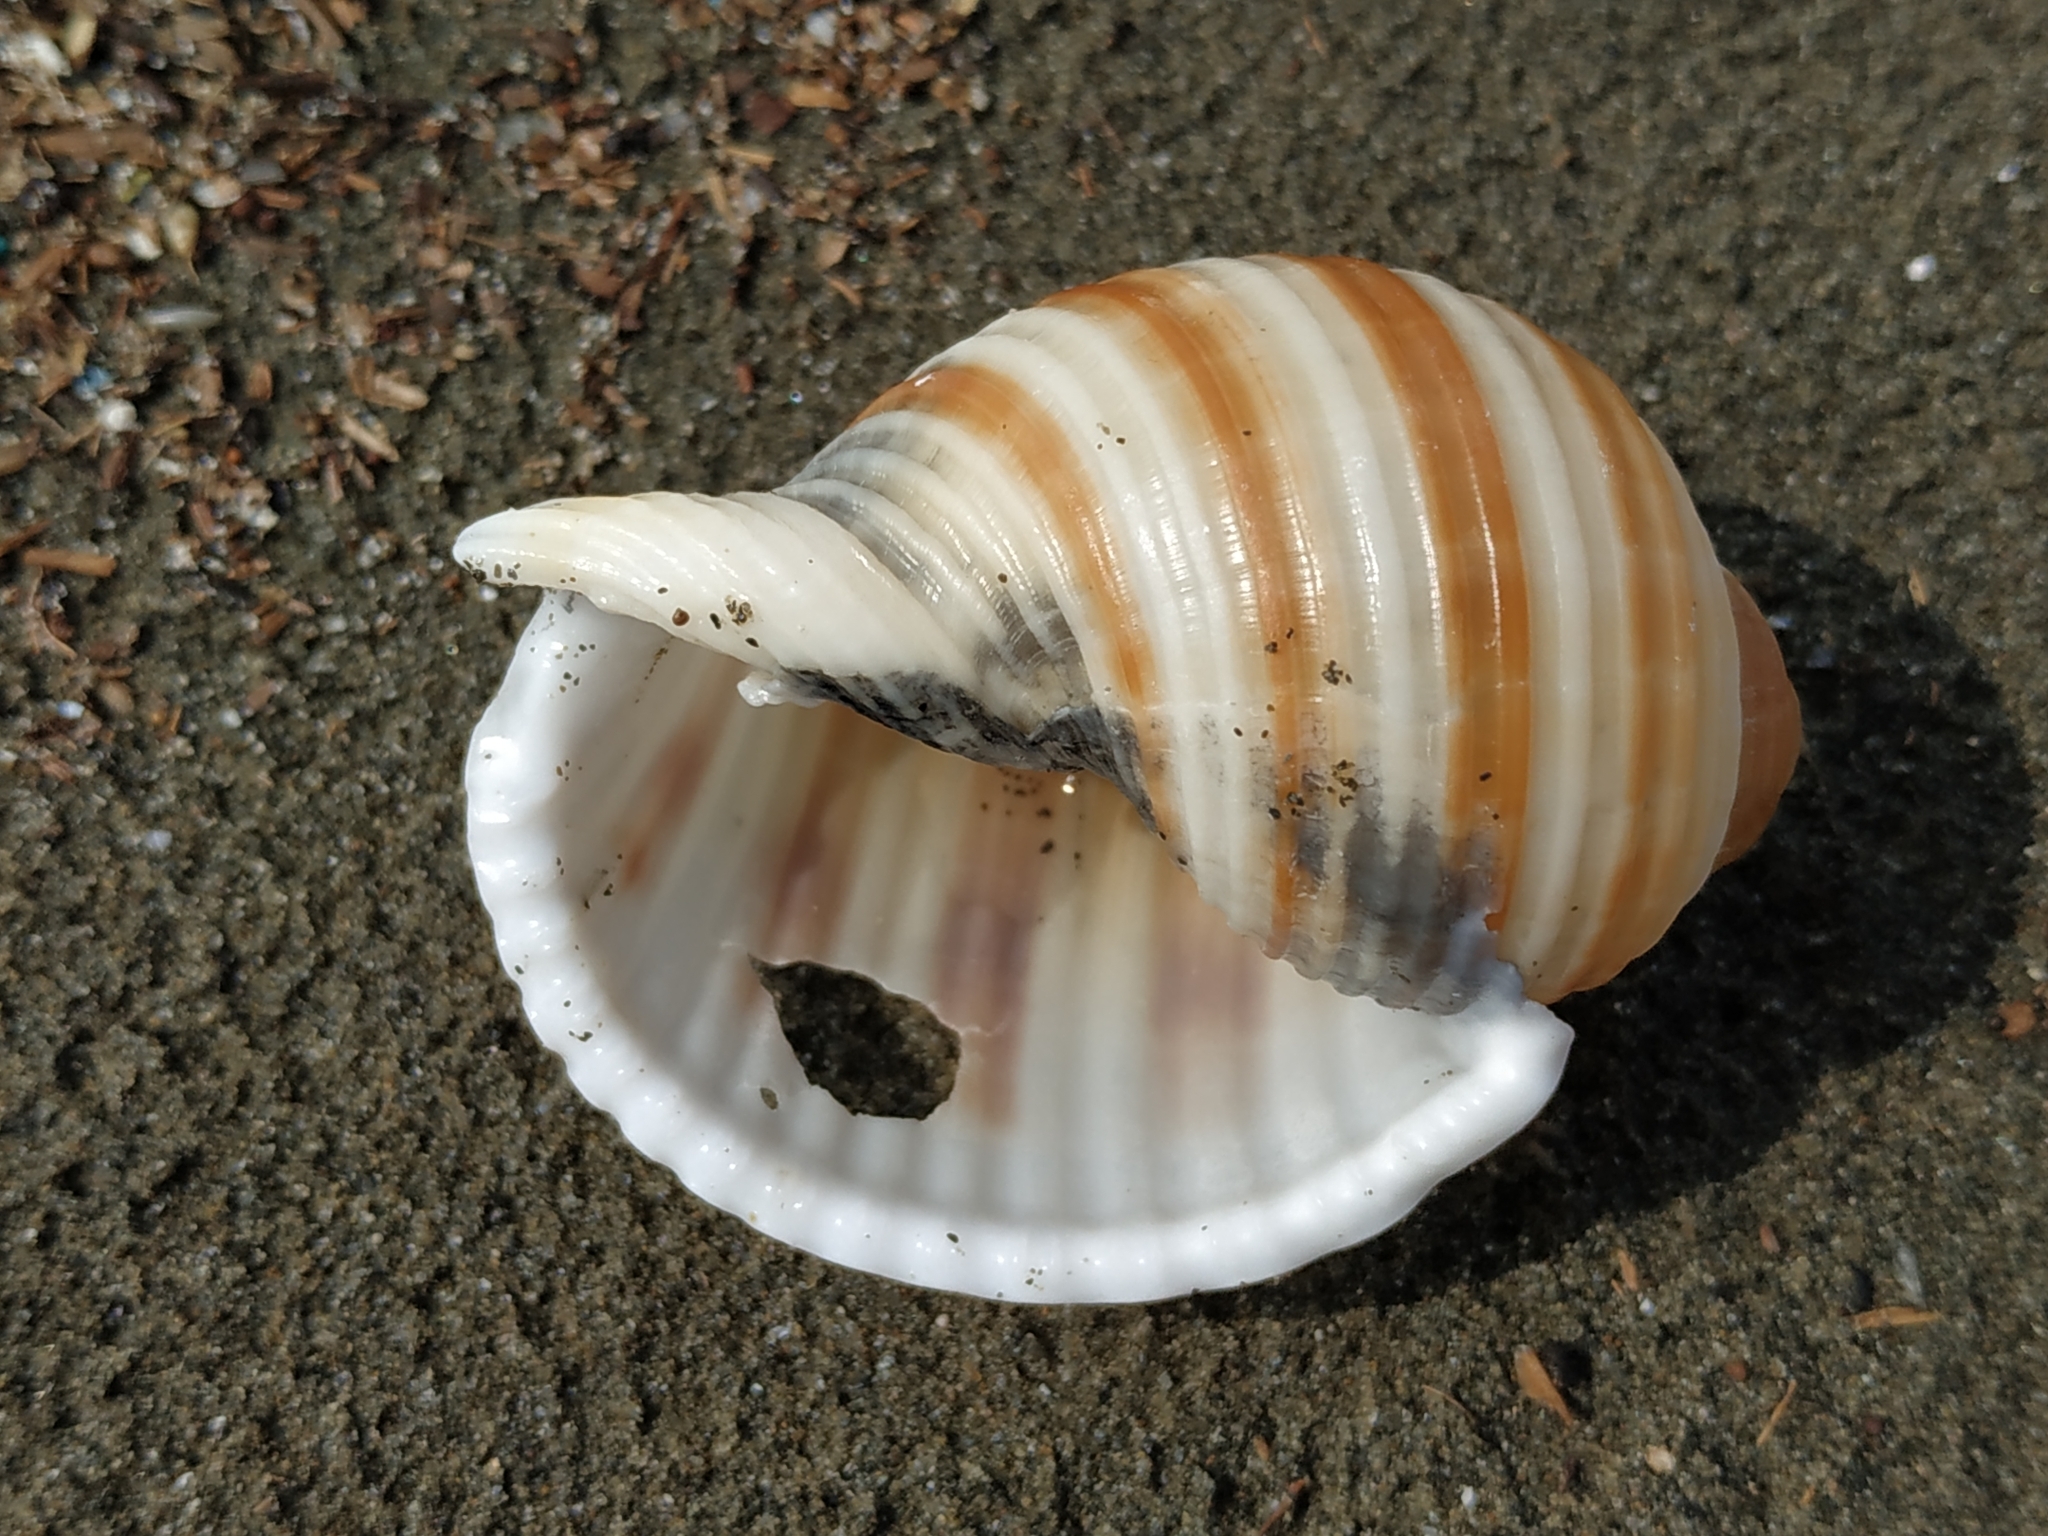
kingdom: Animalia
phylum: Mollusca
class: Gastropoda
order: Littorinimorpha
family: Tonnidae
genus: Tonna
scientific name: Tonna sulcosa
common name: Banded tun
